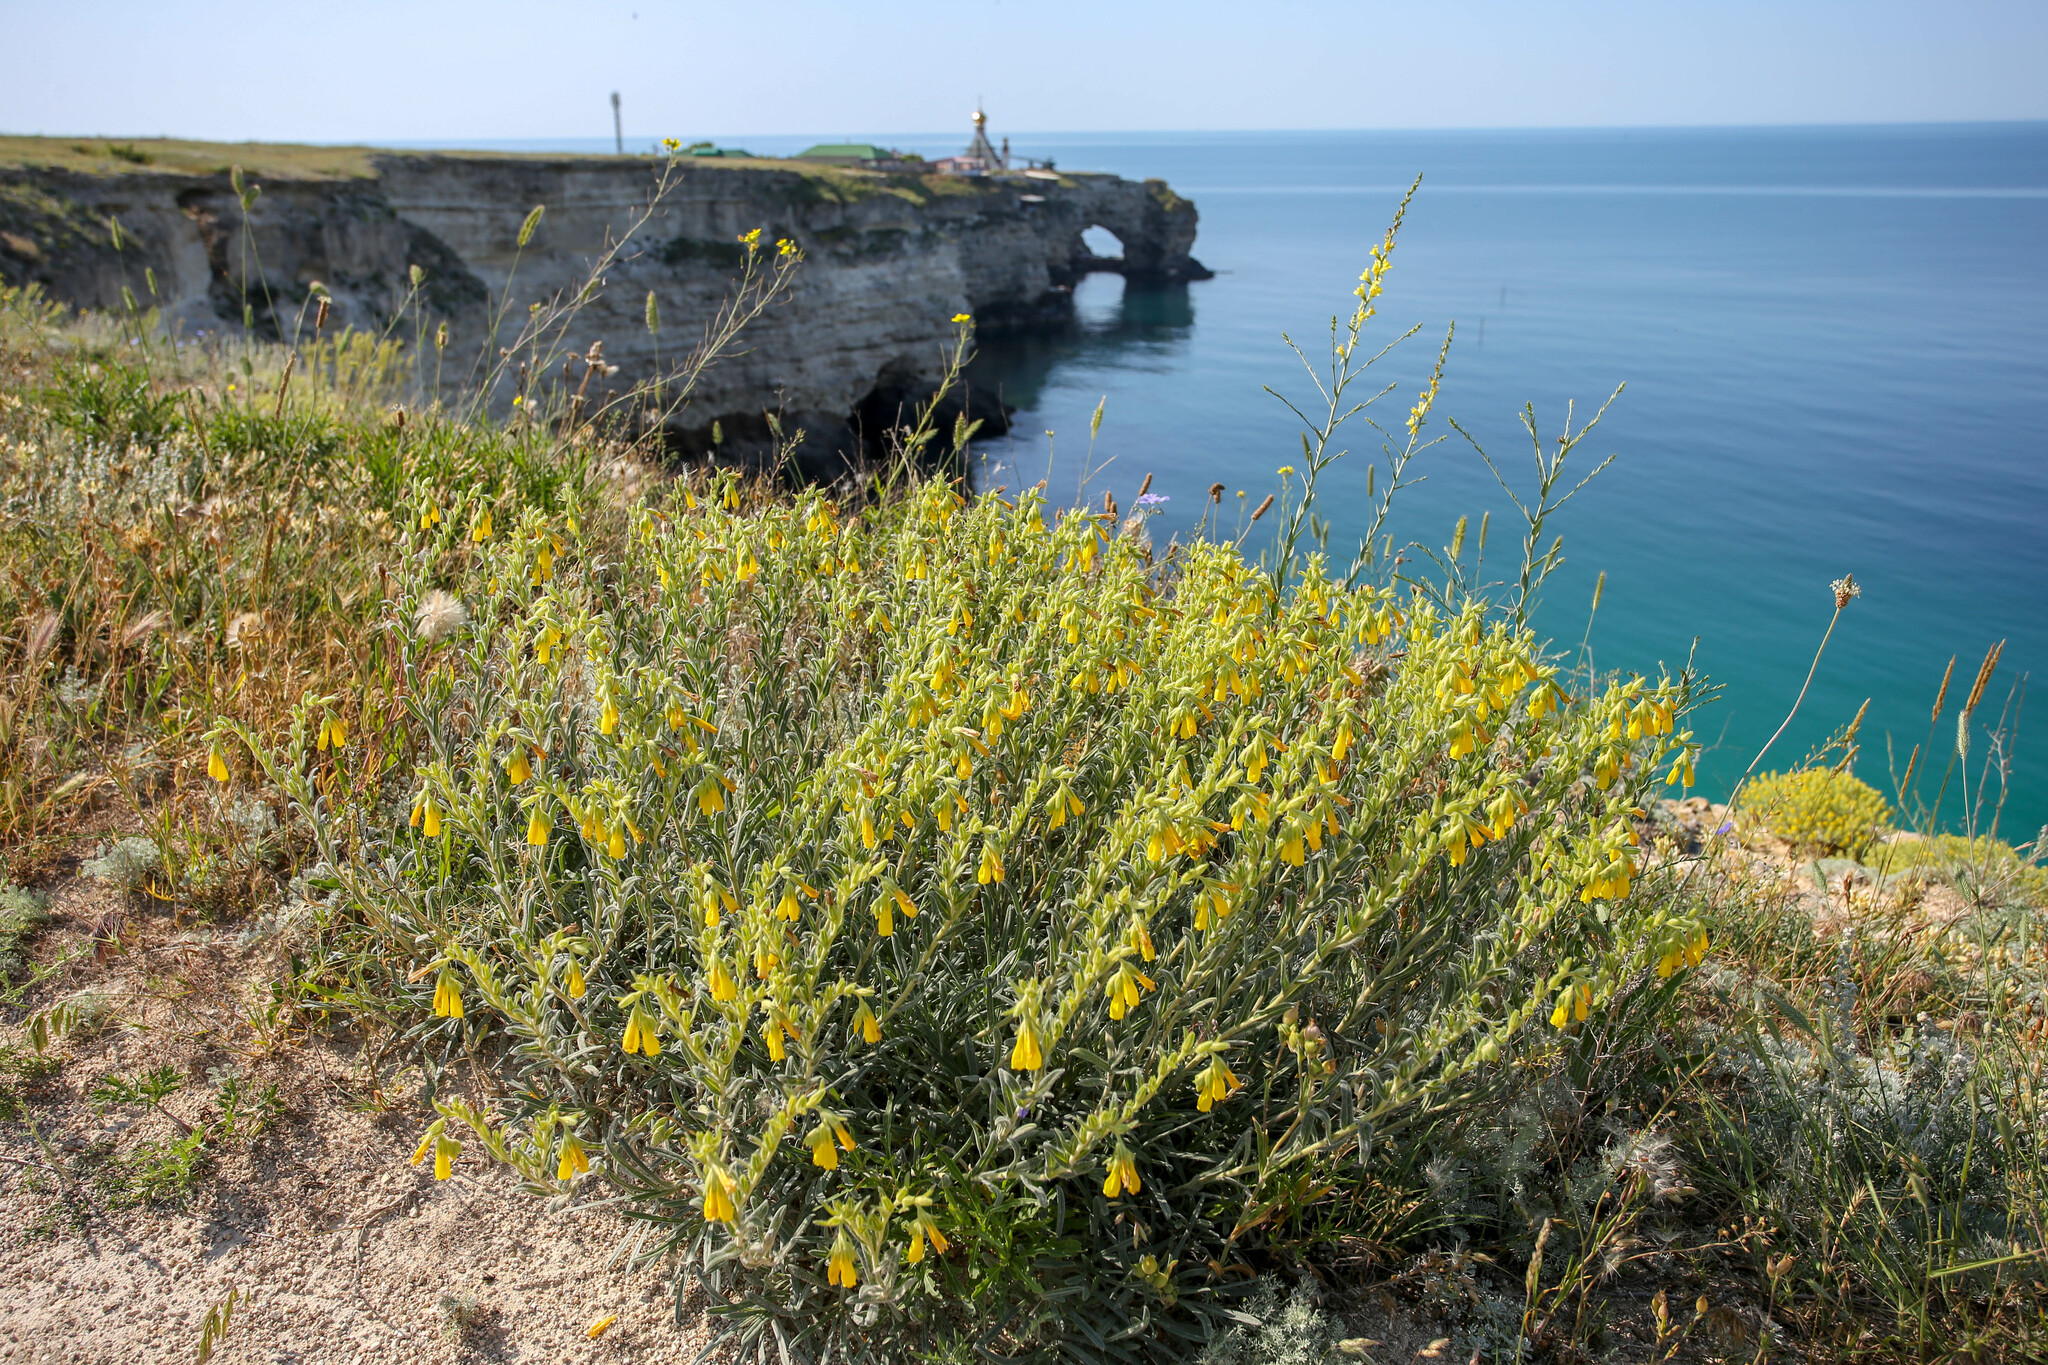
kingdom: Plantae
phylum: Tracheophyta
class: Magnoliopsida
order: Boraginales
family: Boraginaceae
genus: Onosma
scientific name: Onosma taurica
